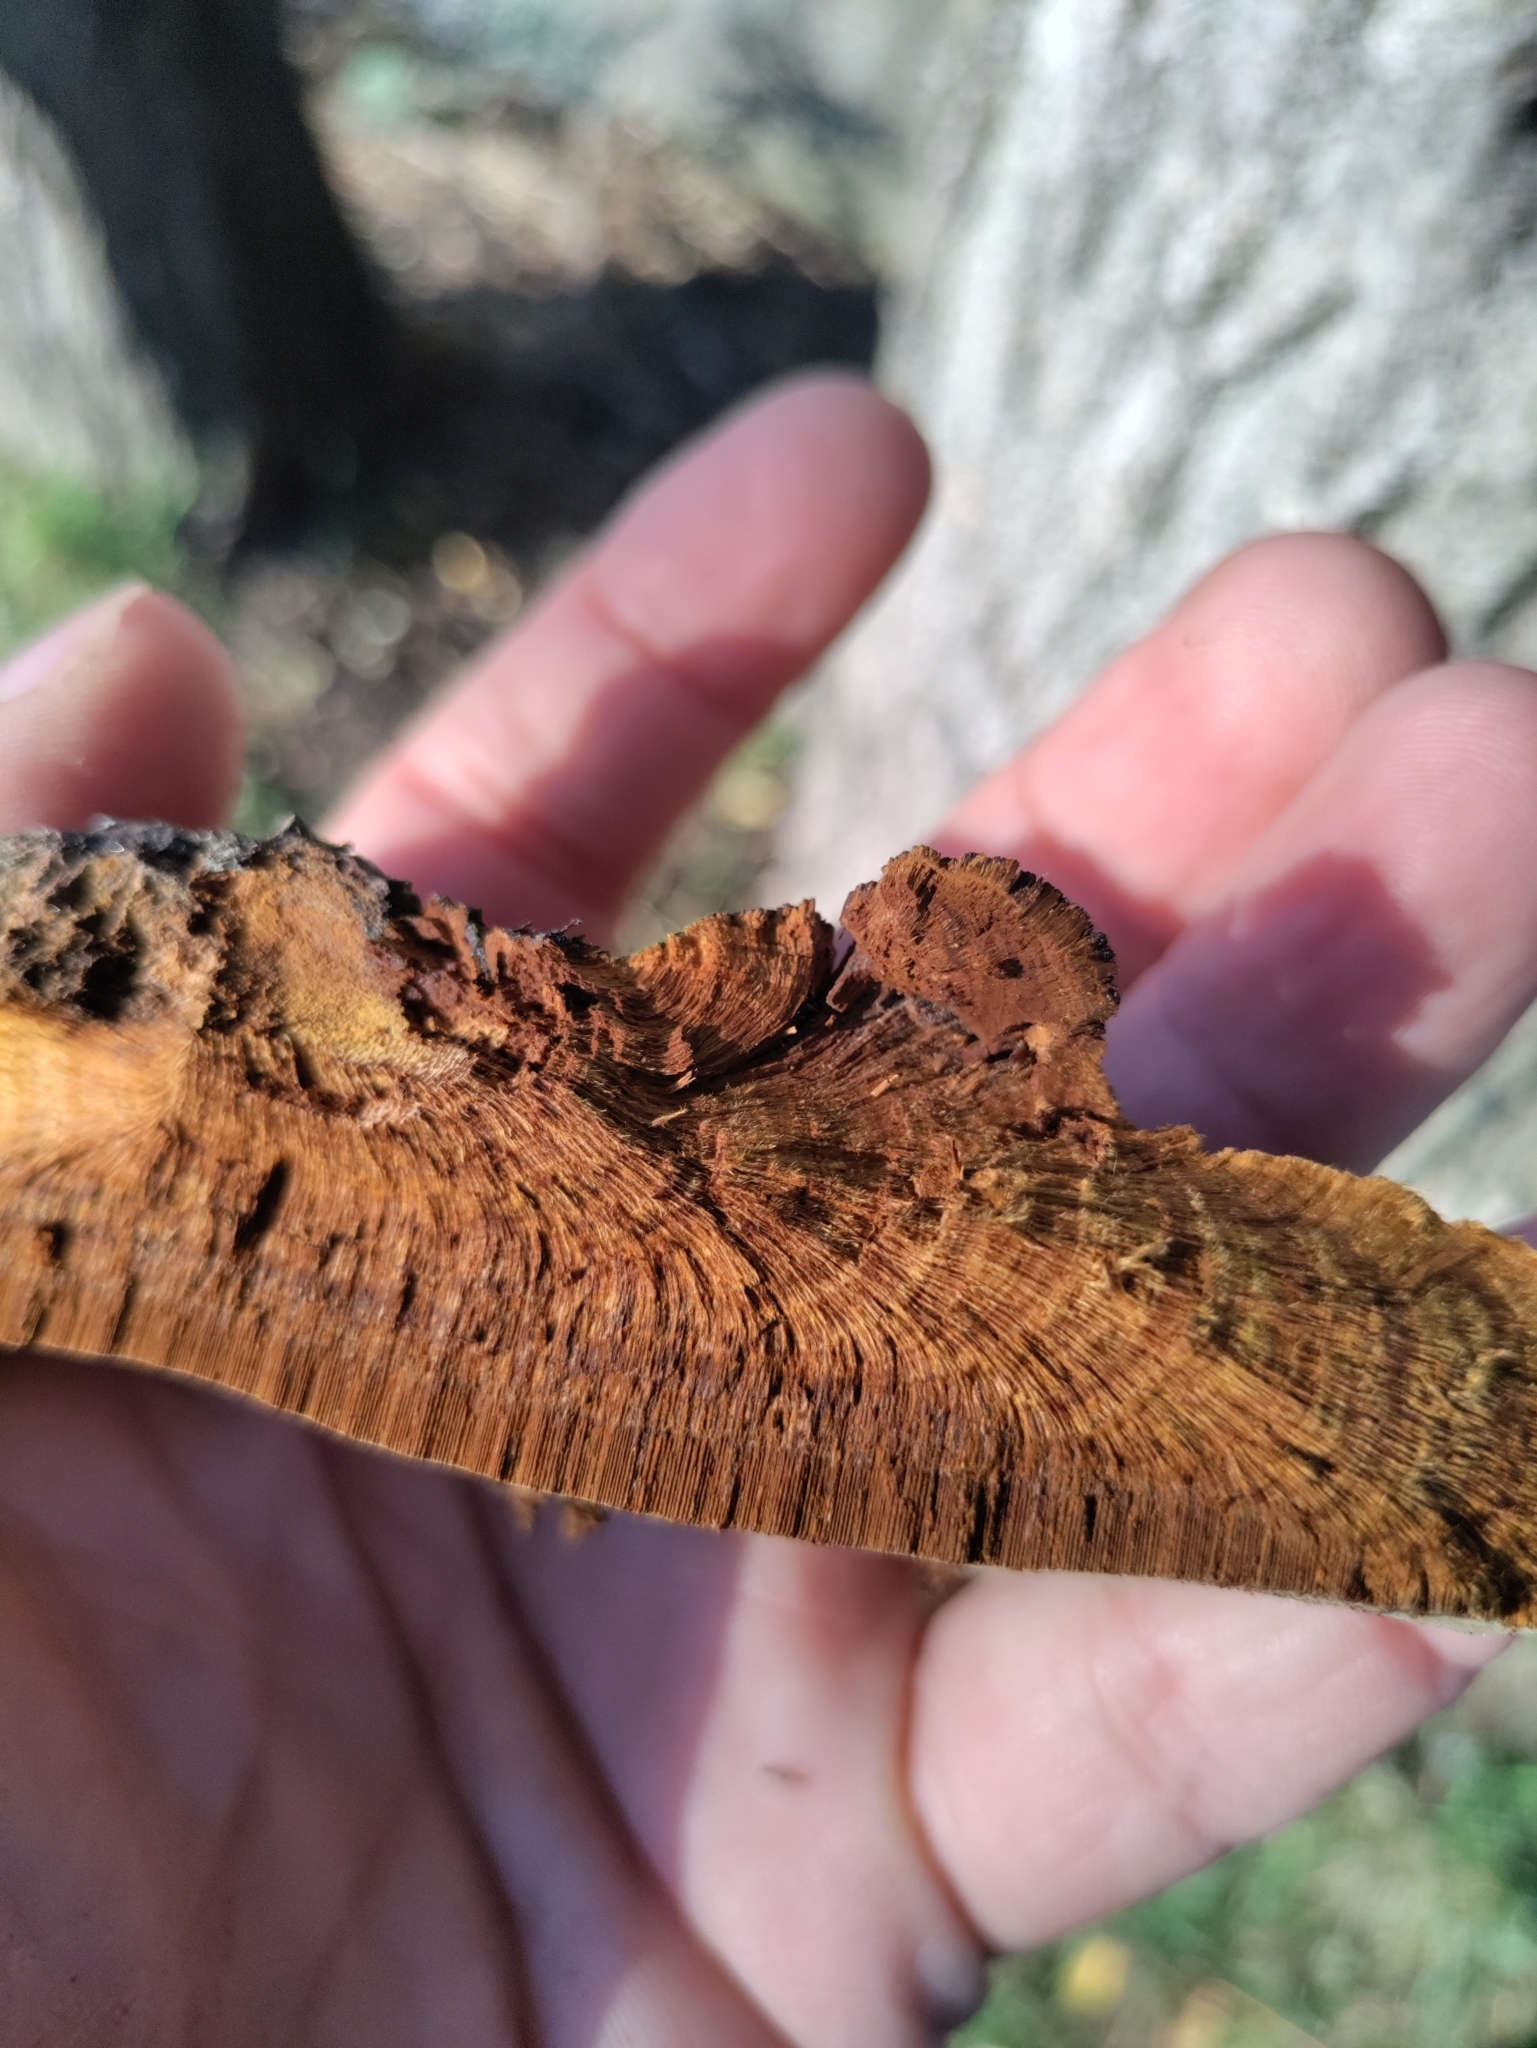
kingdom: Fungi
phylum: Basidiomycota
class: Agaricomycetes
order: Hymenochaetales
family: Hymenochaetaceae
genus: Phellinus
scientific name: Phellinus robiniae
